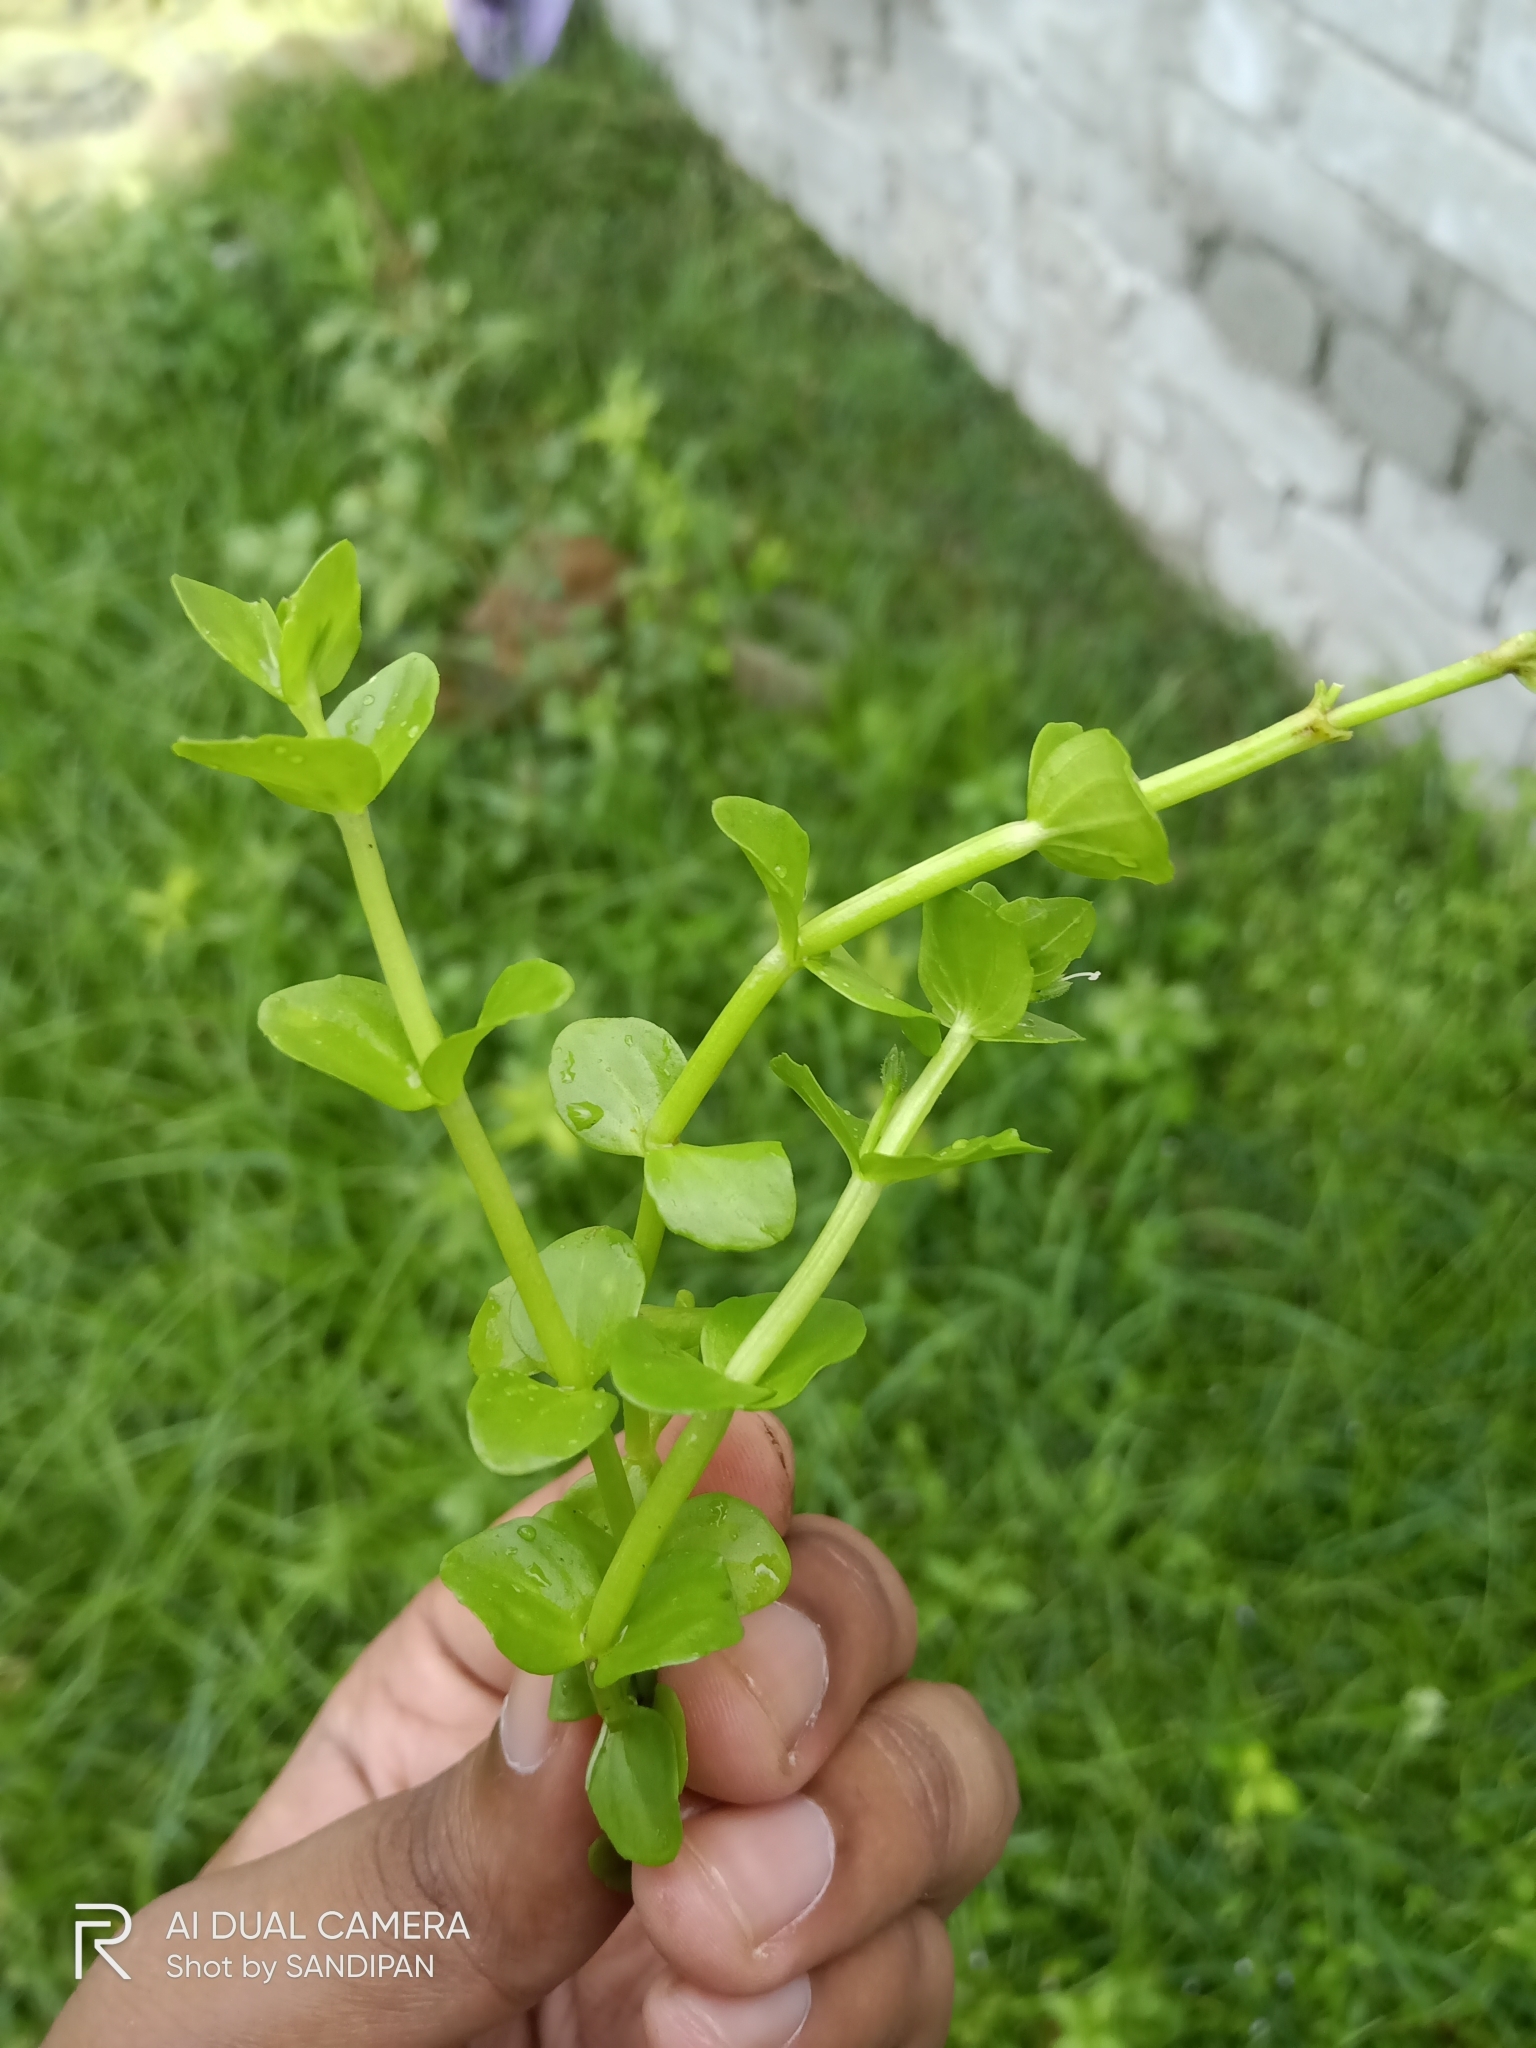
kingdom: Plantae
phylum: Tracheophyta
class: Magnoliopsida
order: Lamiales
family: Linderniaceae
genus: Lindernia
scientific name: Lindernia rotundifolia
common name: Baby’s tears
